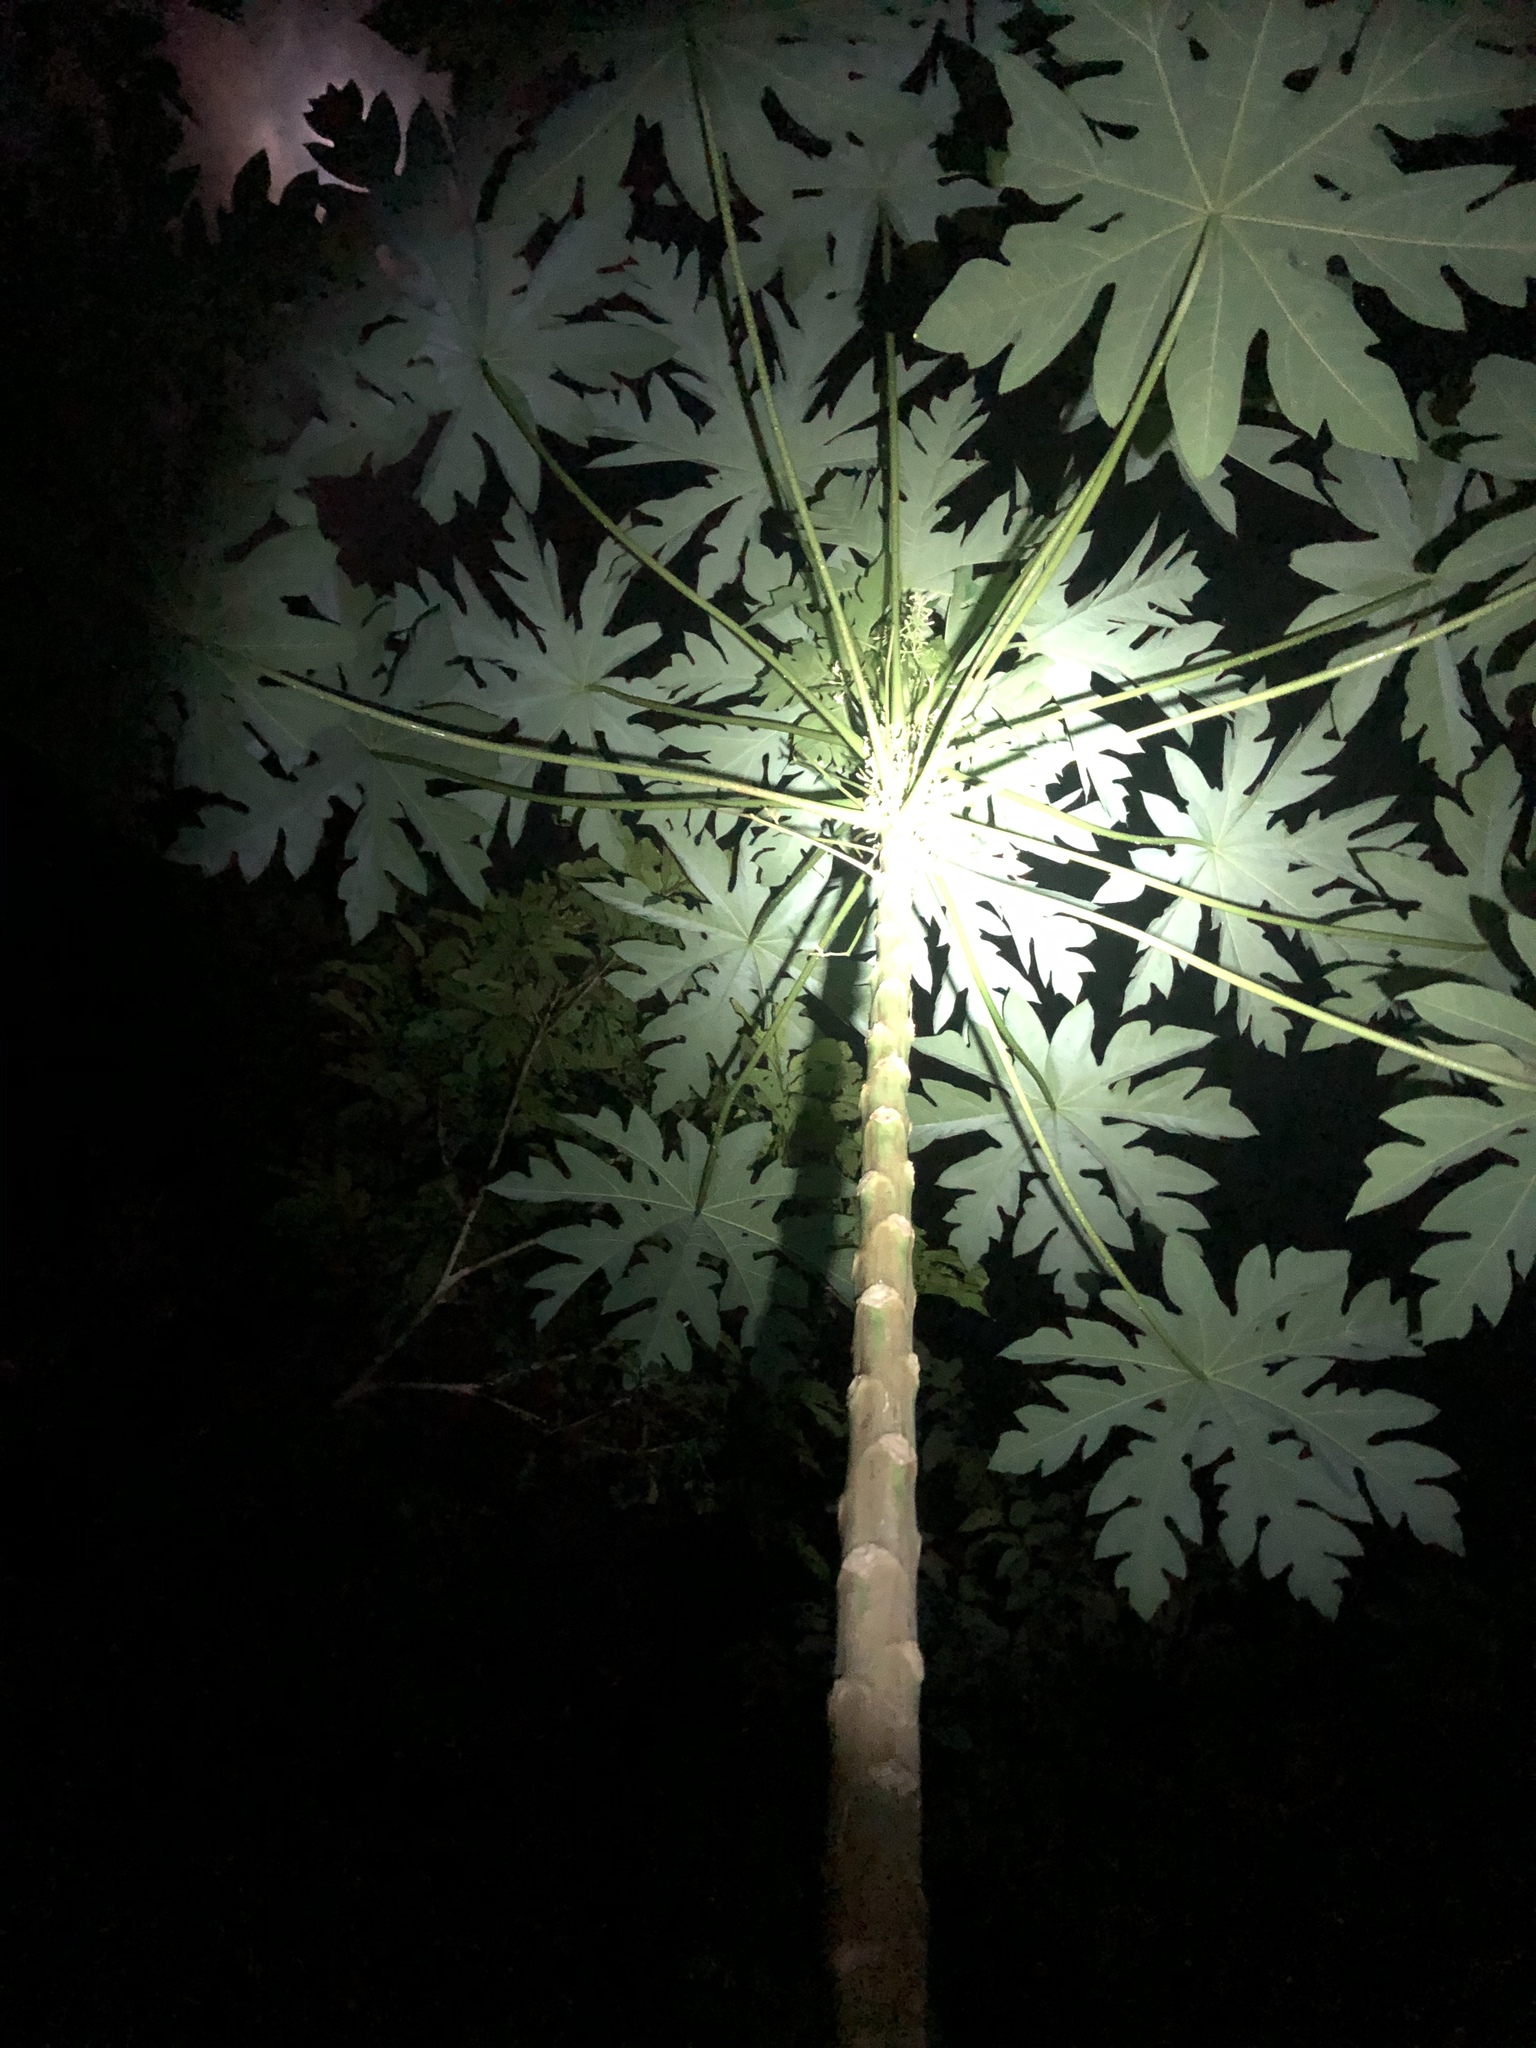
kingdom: Plantae
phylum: Tracheophyta
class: Magnoliopsida
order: Brassicales
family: Caricaceae
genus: Carica
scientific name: Carica papaya
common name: Papaya
